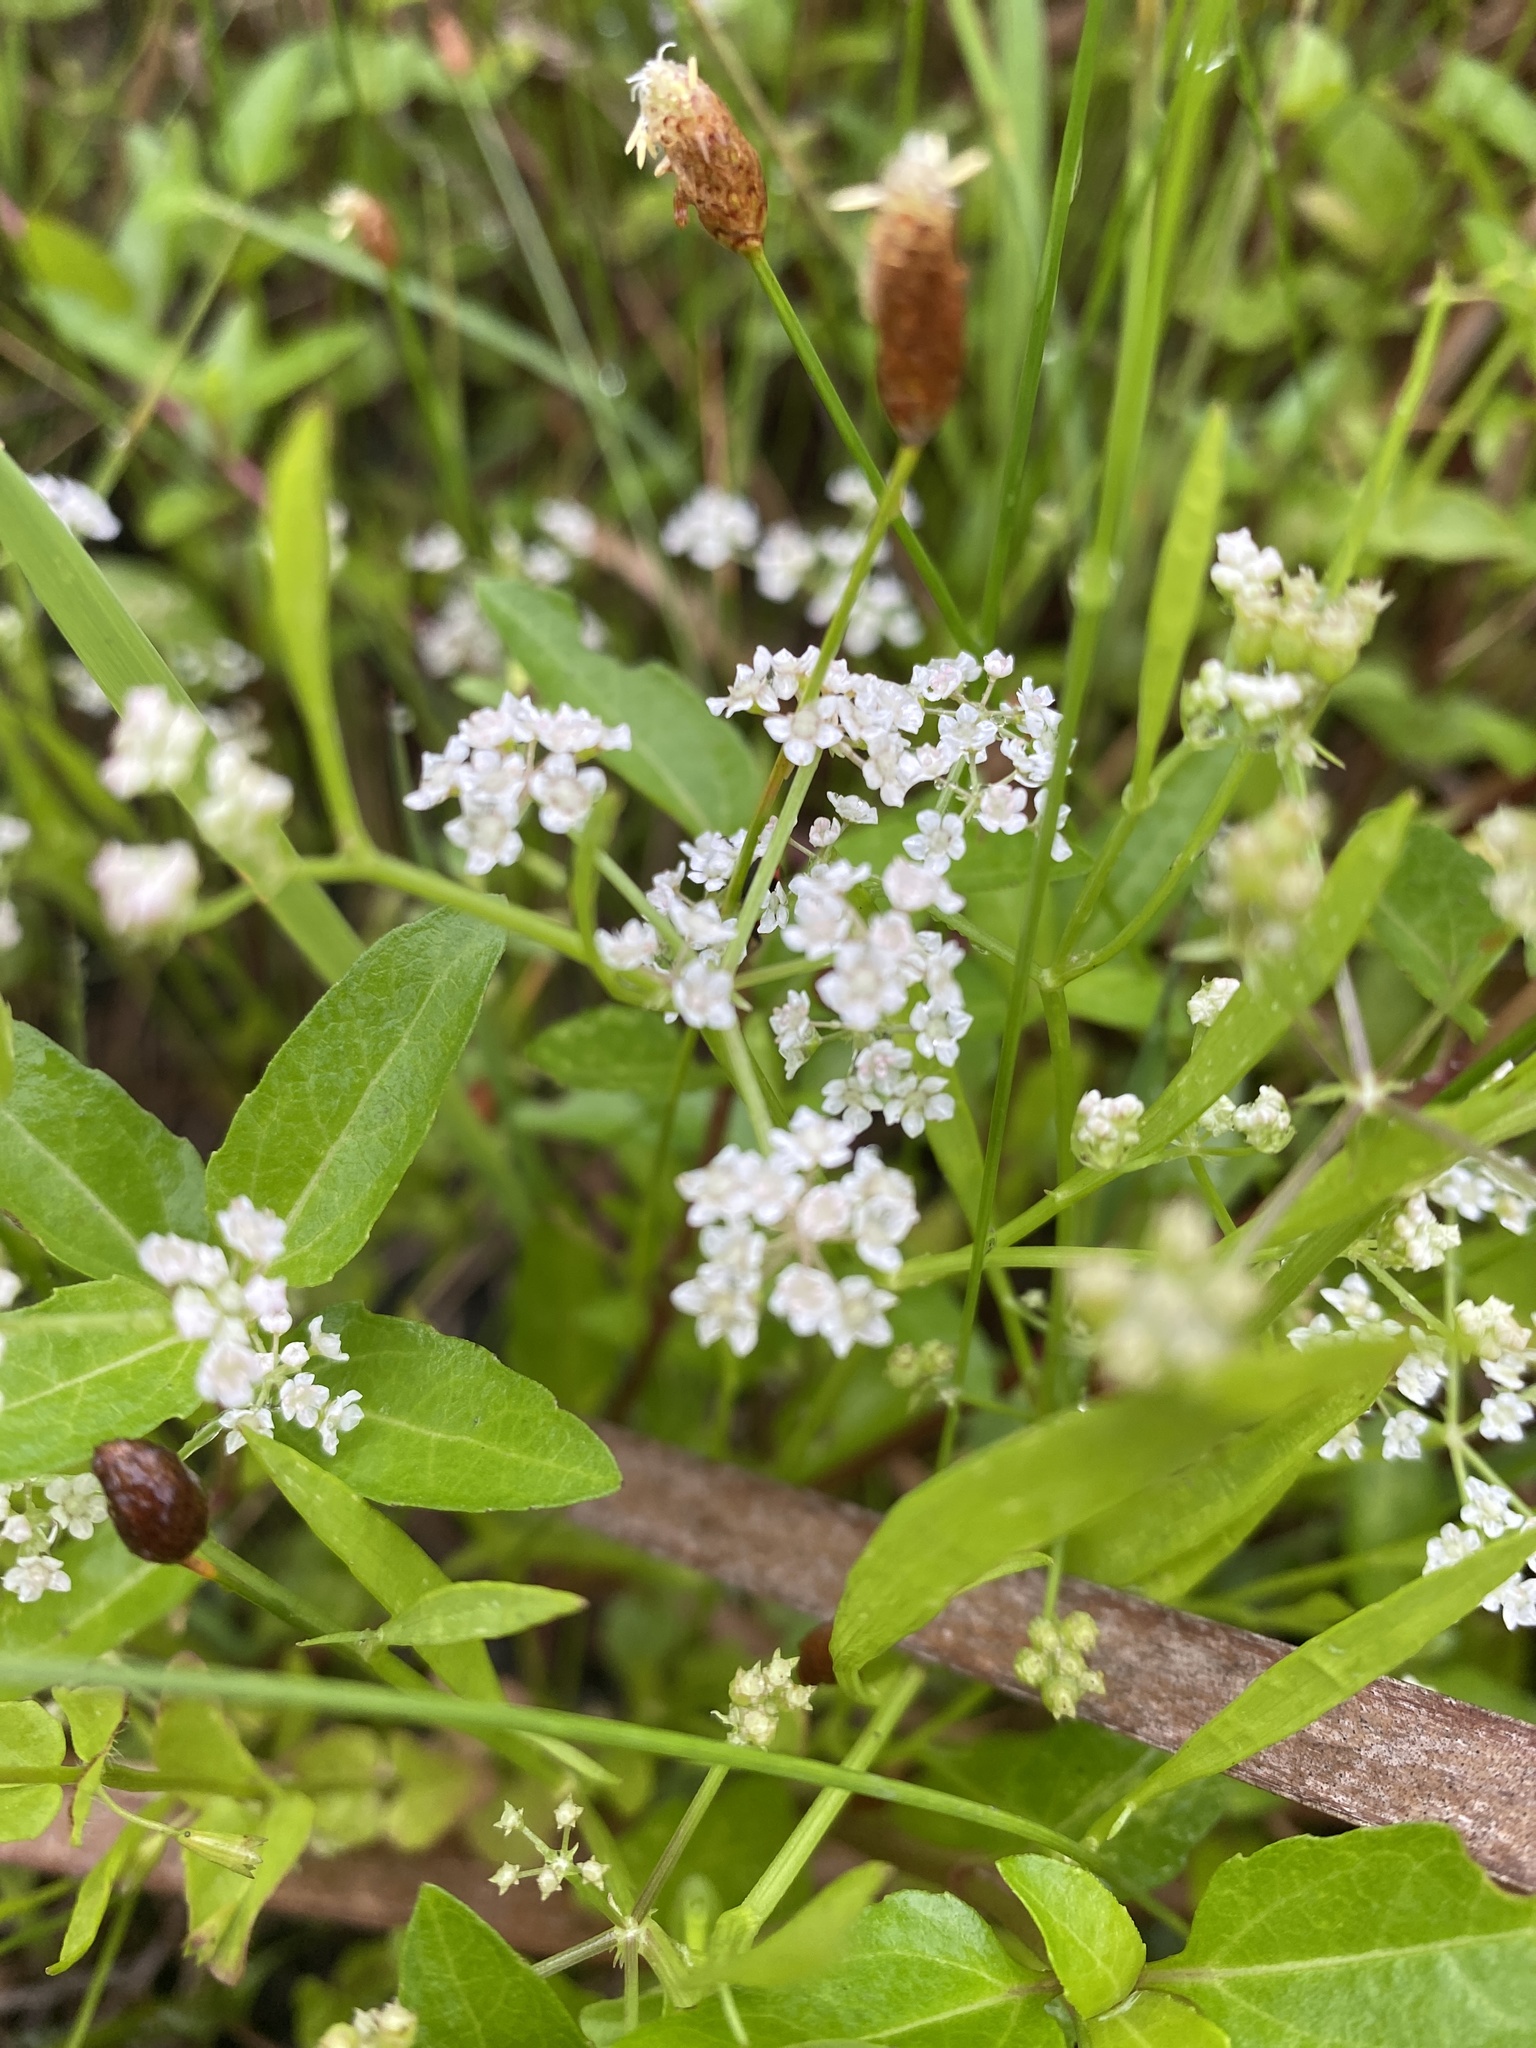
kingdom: Plantae
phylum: Tracheophyta
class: Magnoliopsida
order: Apiales
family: Apiaceae
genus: Limnosciadium
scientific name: Limnosciadium pinnatum
